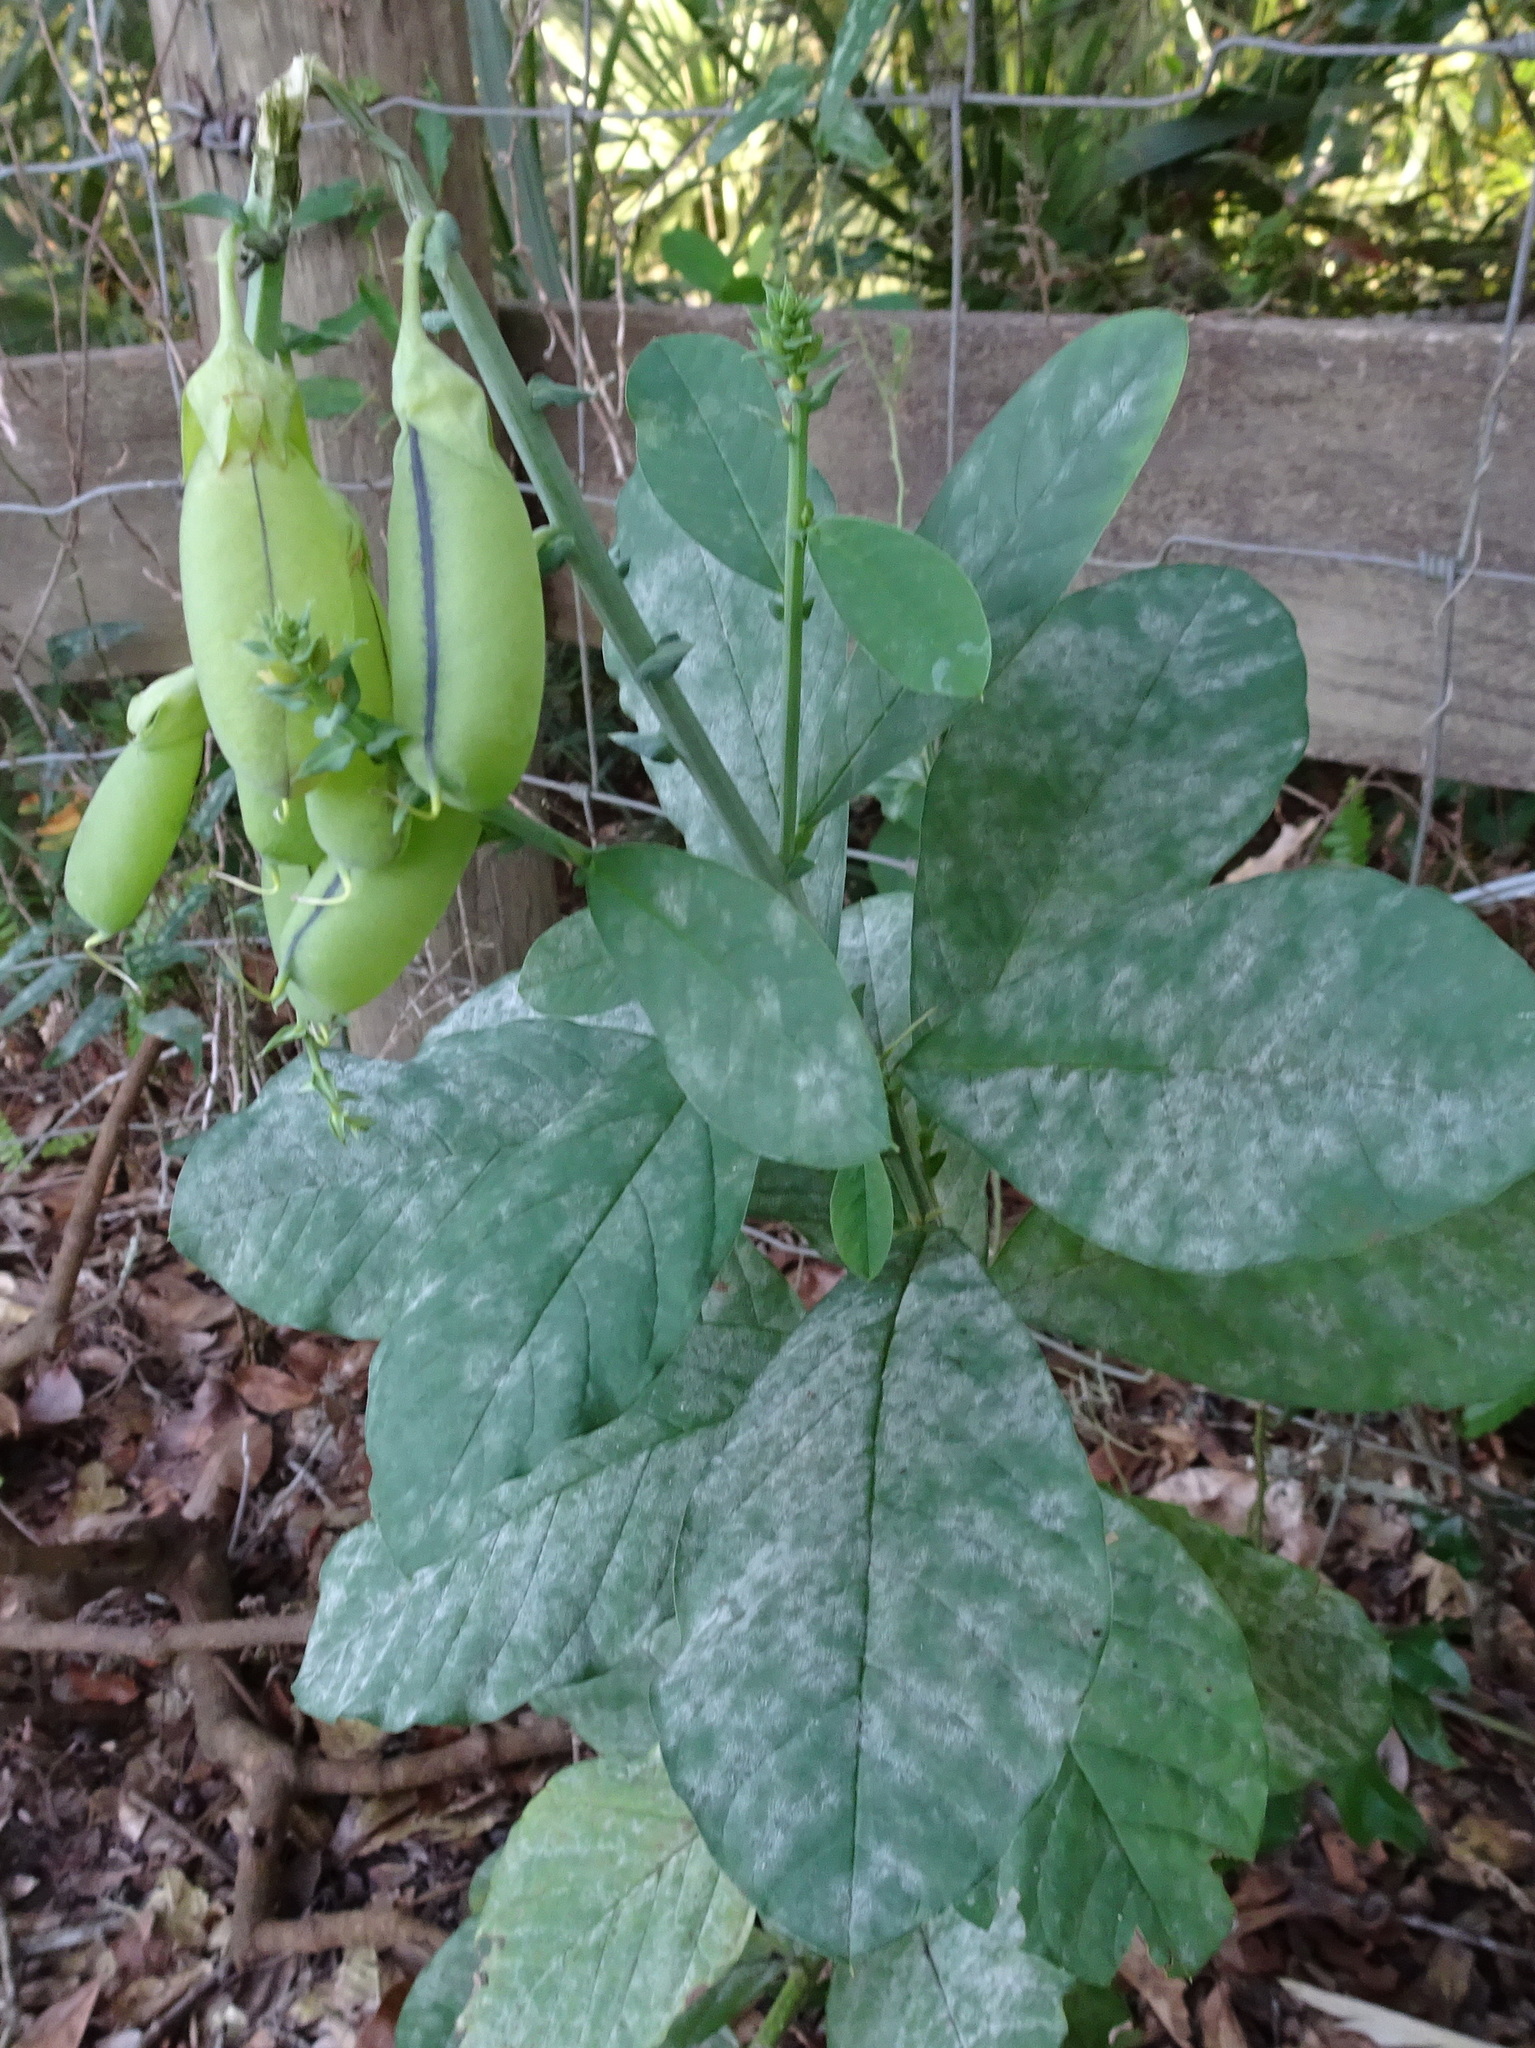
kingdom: Plantae
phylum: Tracheophyta
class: Magnoliopsida
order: Fabales
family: Fabaceae
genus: Crotalaria
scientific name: Crotalaria spectabilis
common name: Showy rattlebox
